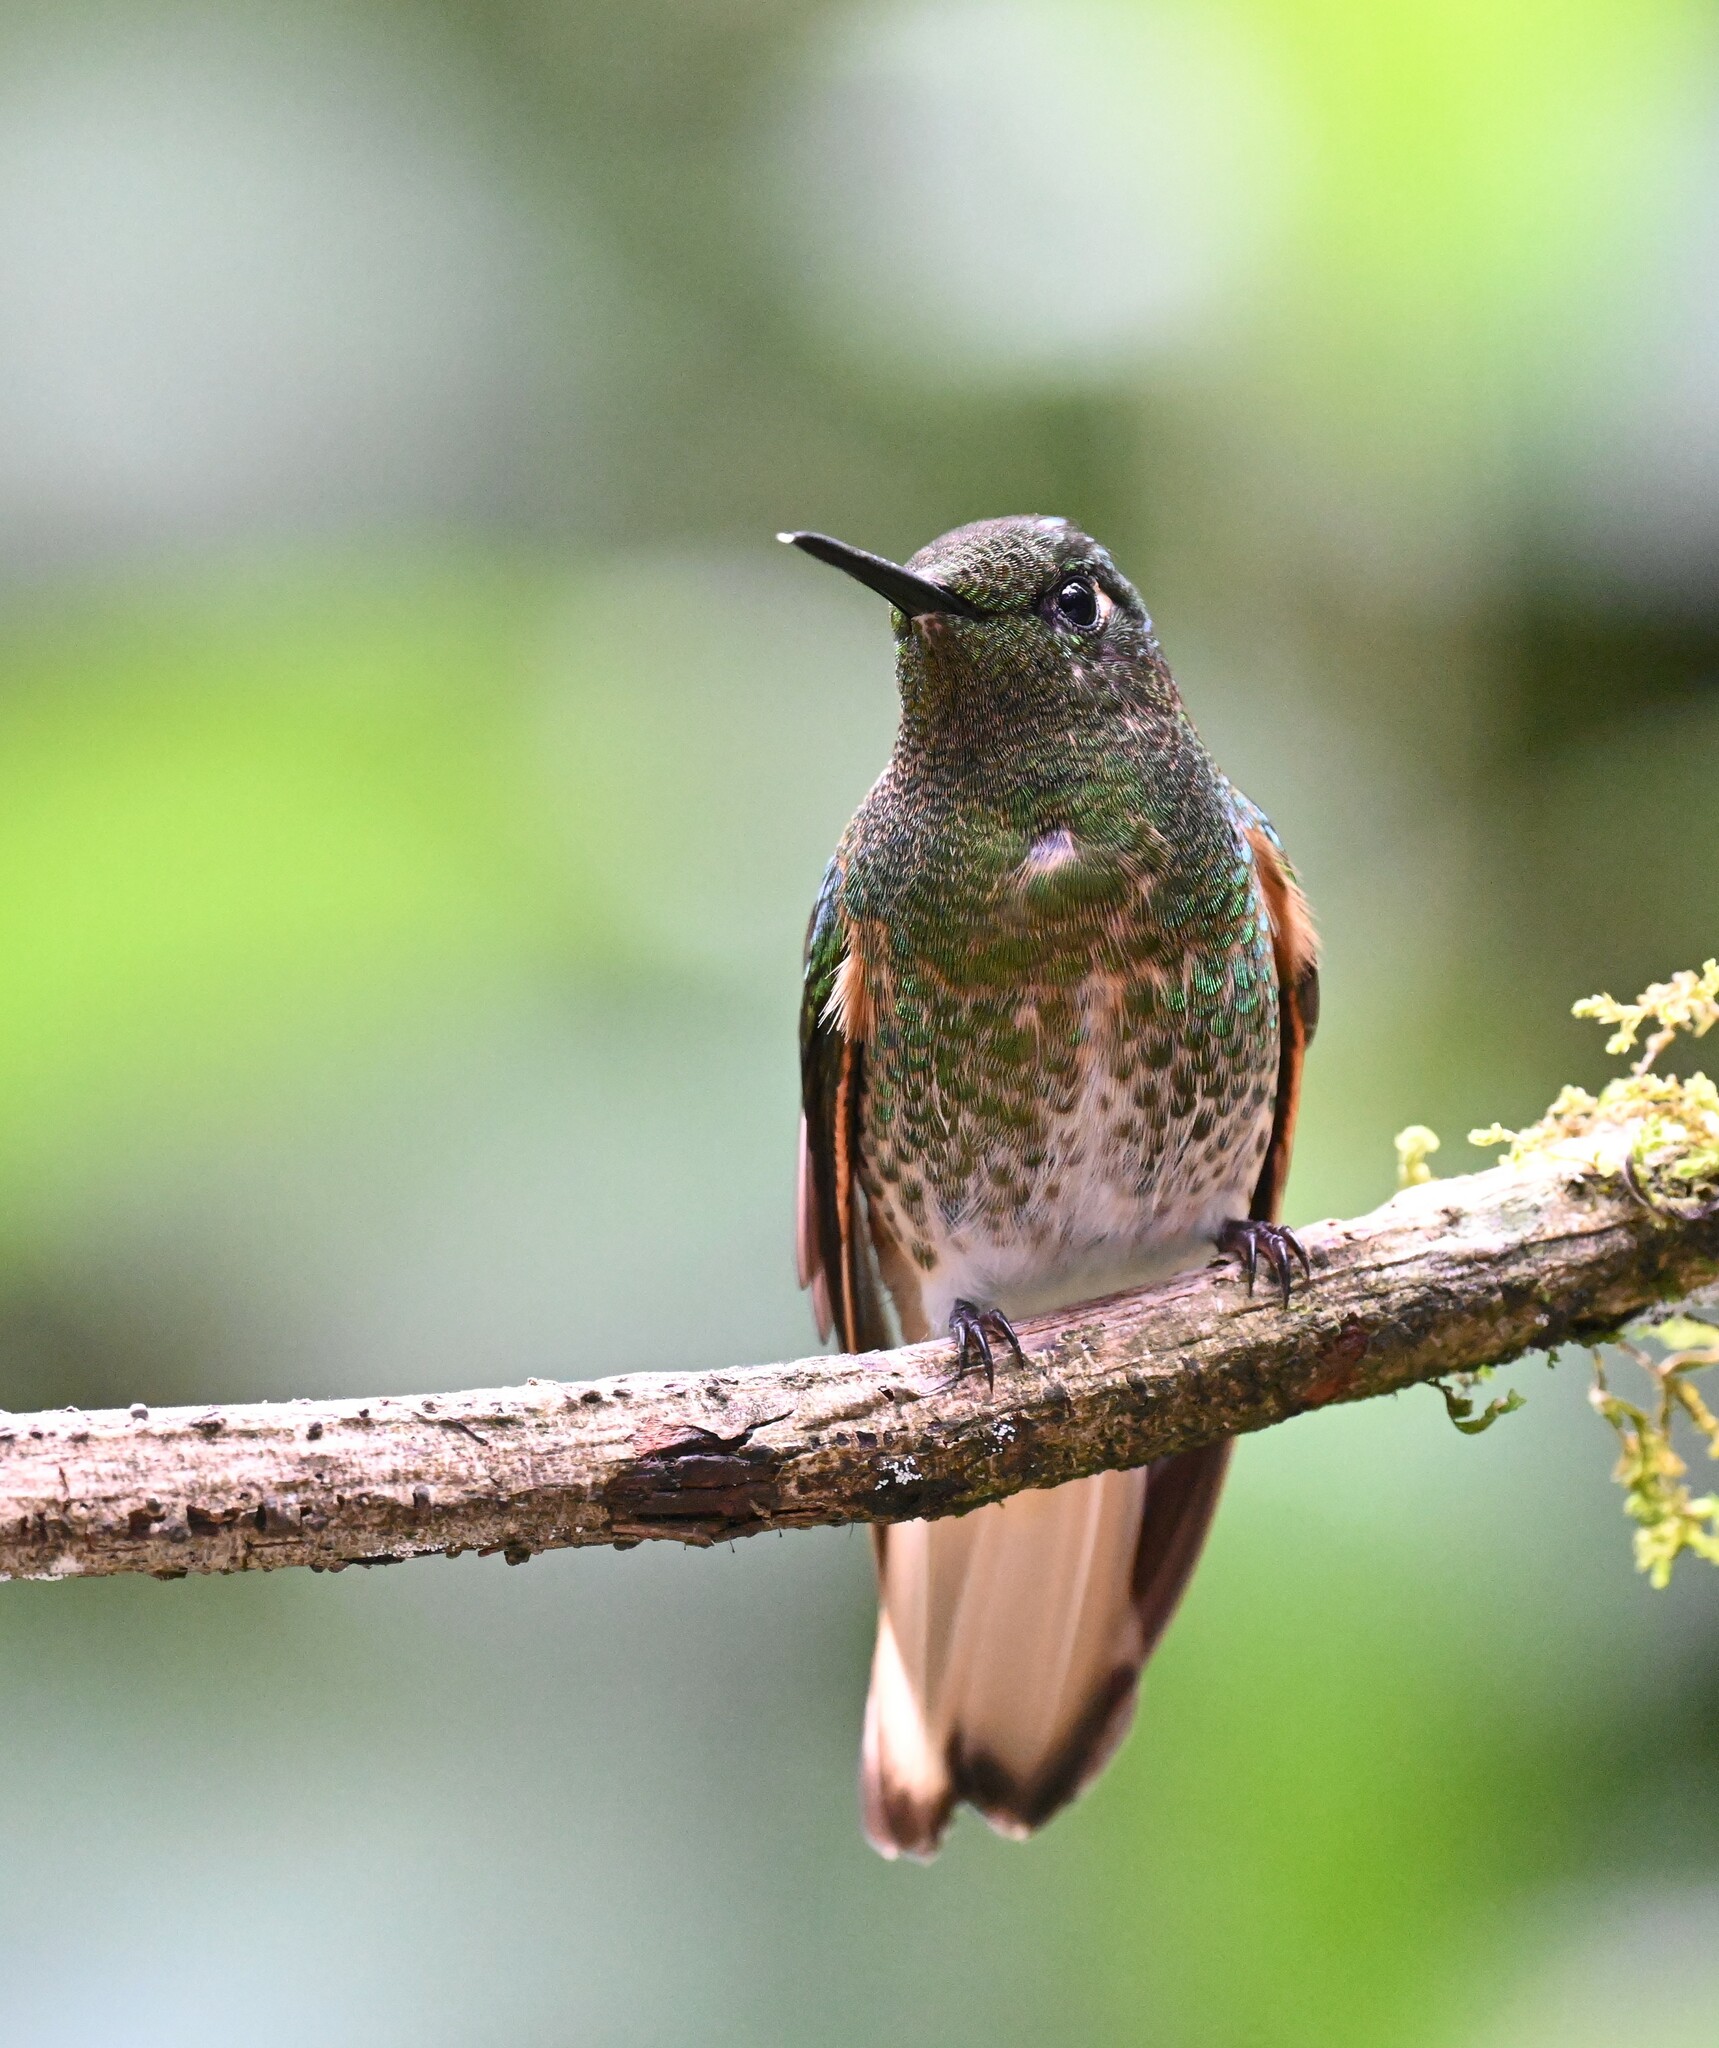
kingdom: Animalia
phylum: Chordata
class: Aves
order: Apodiformes
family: Trochilidae
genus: Boissonneaua
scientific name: Boissonneaua flavescens
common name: Buff-tailed coronet
